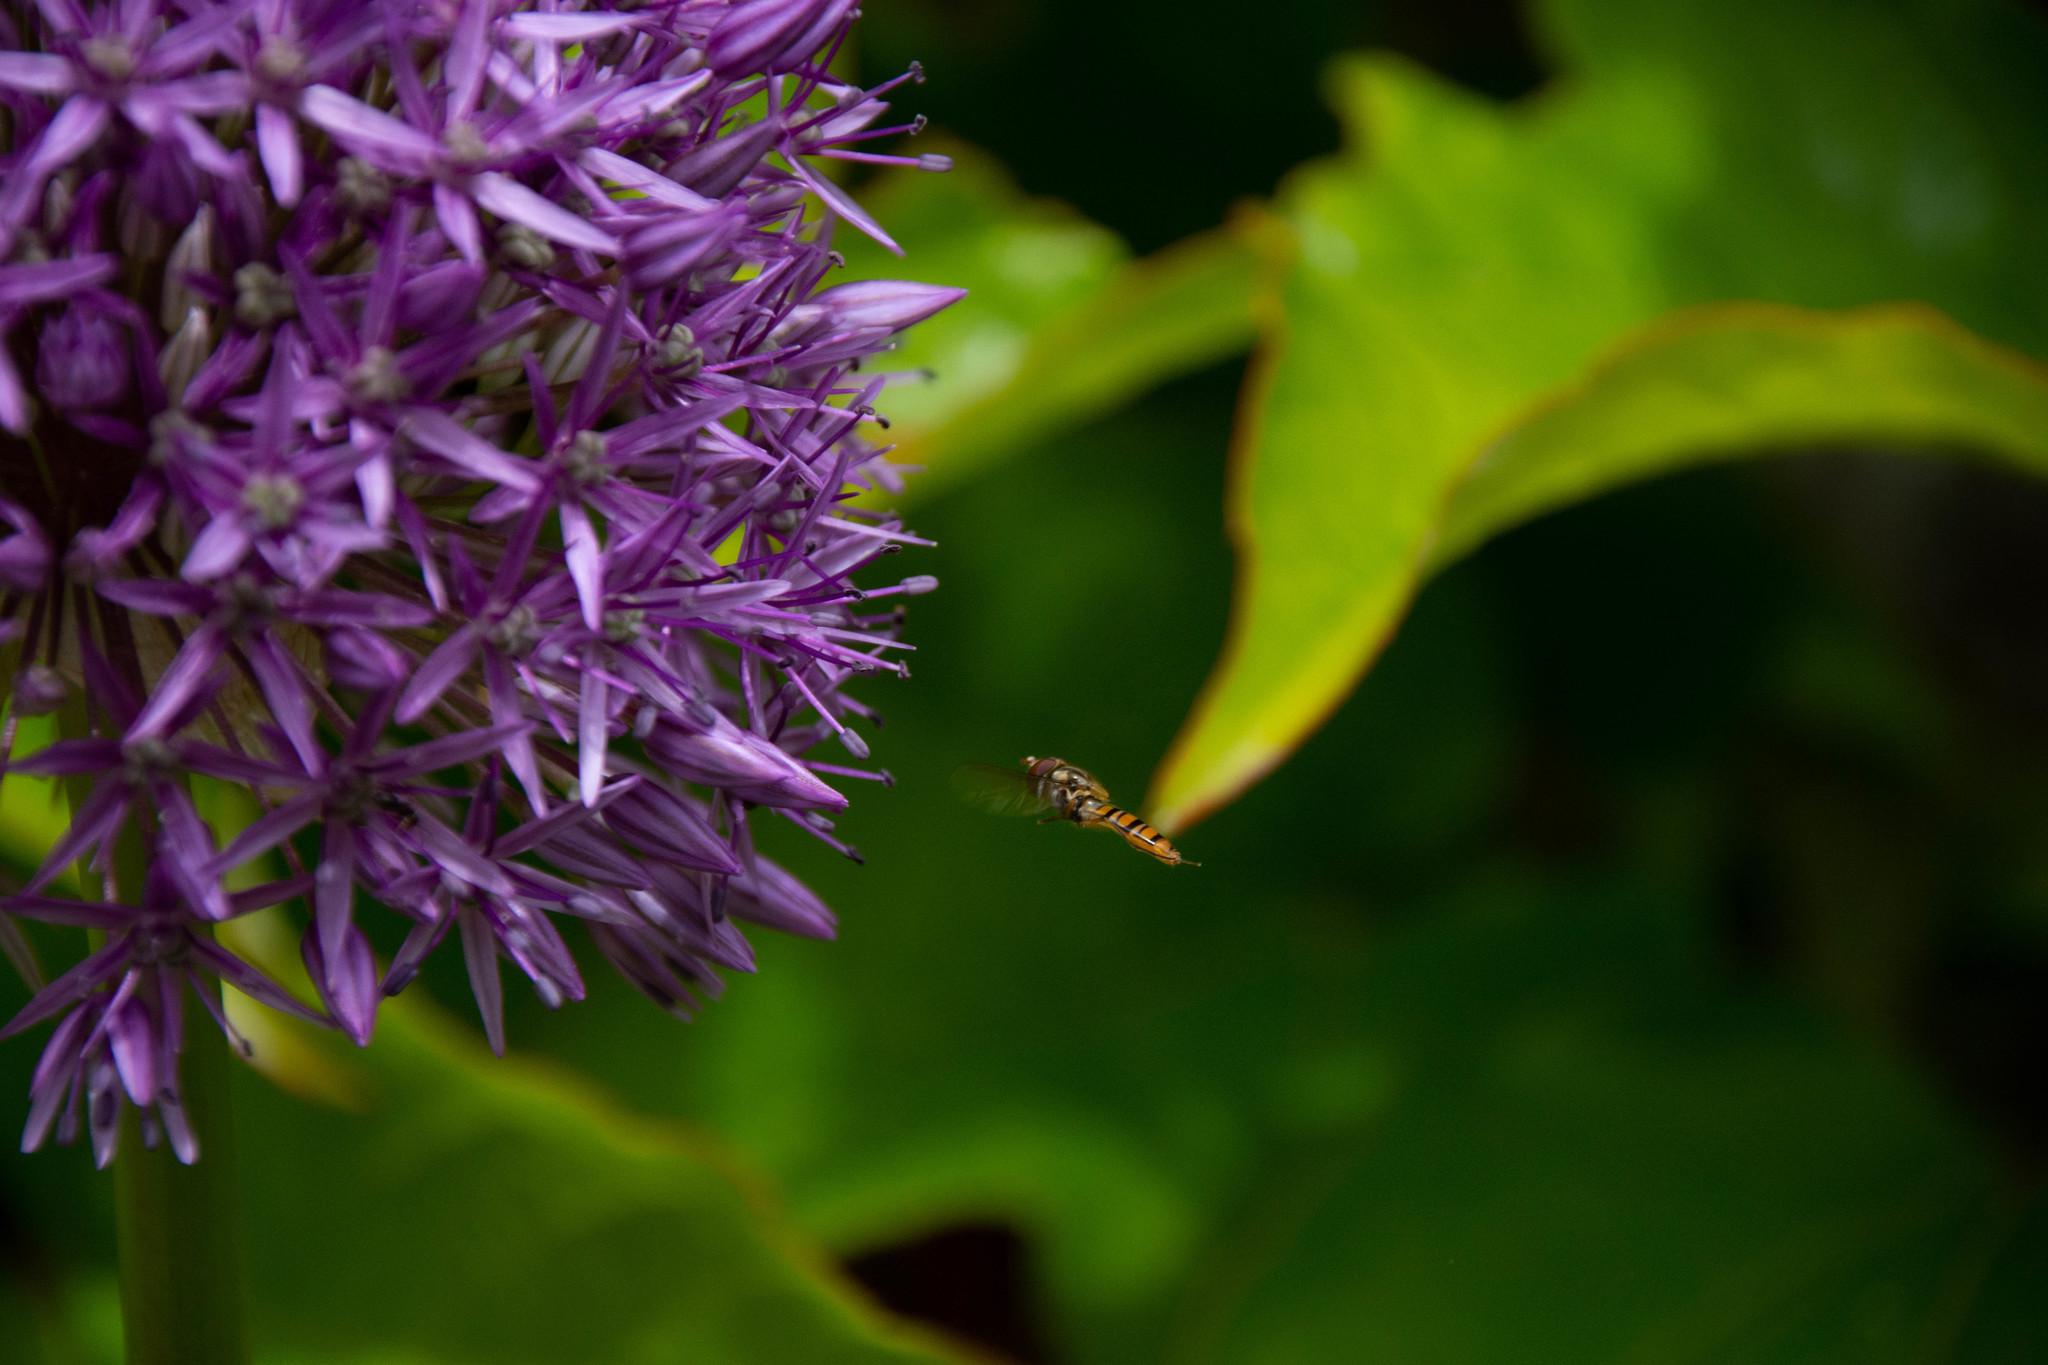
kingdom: Animalia
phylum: Arthropoda
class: Insecta
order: Diptera
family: Syrphidae
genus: Episyrphus
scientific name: Episyrphus balteatus
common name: Marmalade hoverfly
